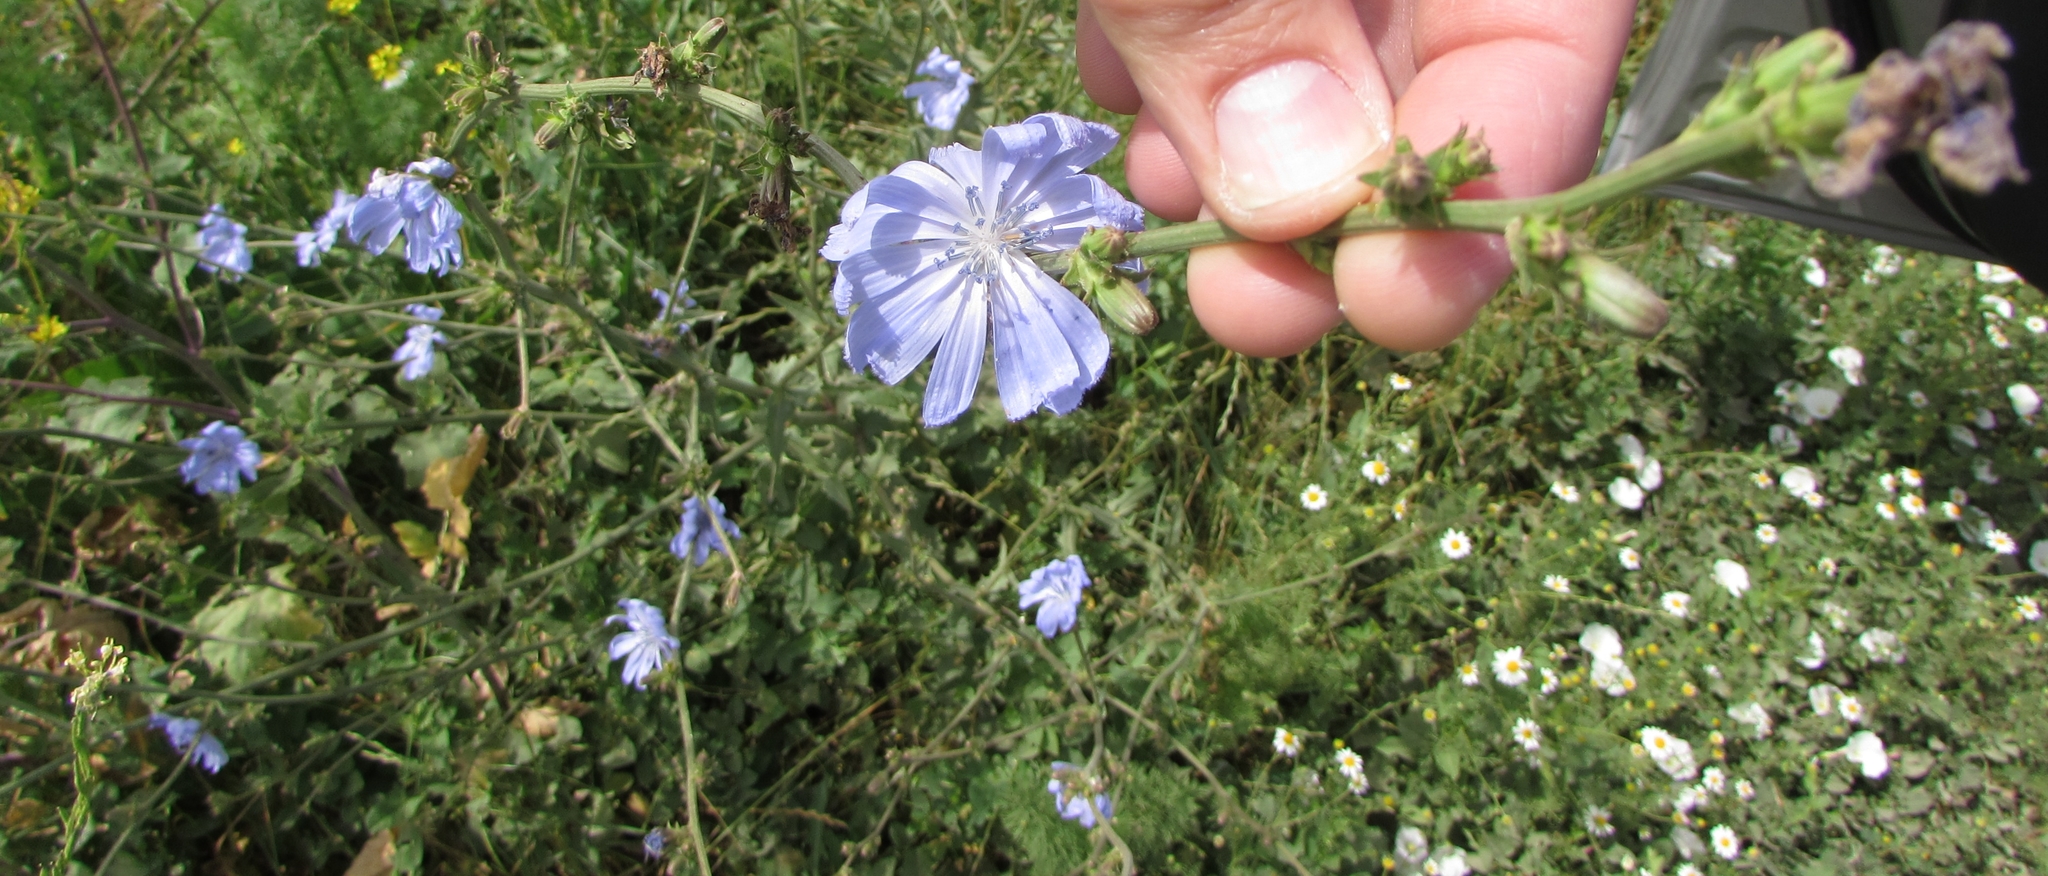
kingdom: Plantae
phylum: Tracheophyta
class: Magnoliopsida
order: Asterales
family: Asteraceae
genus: Cichorium
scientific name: Cichorium intybus
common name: Chicory
